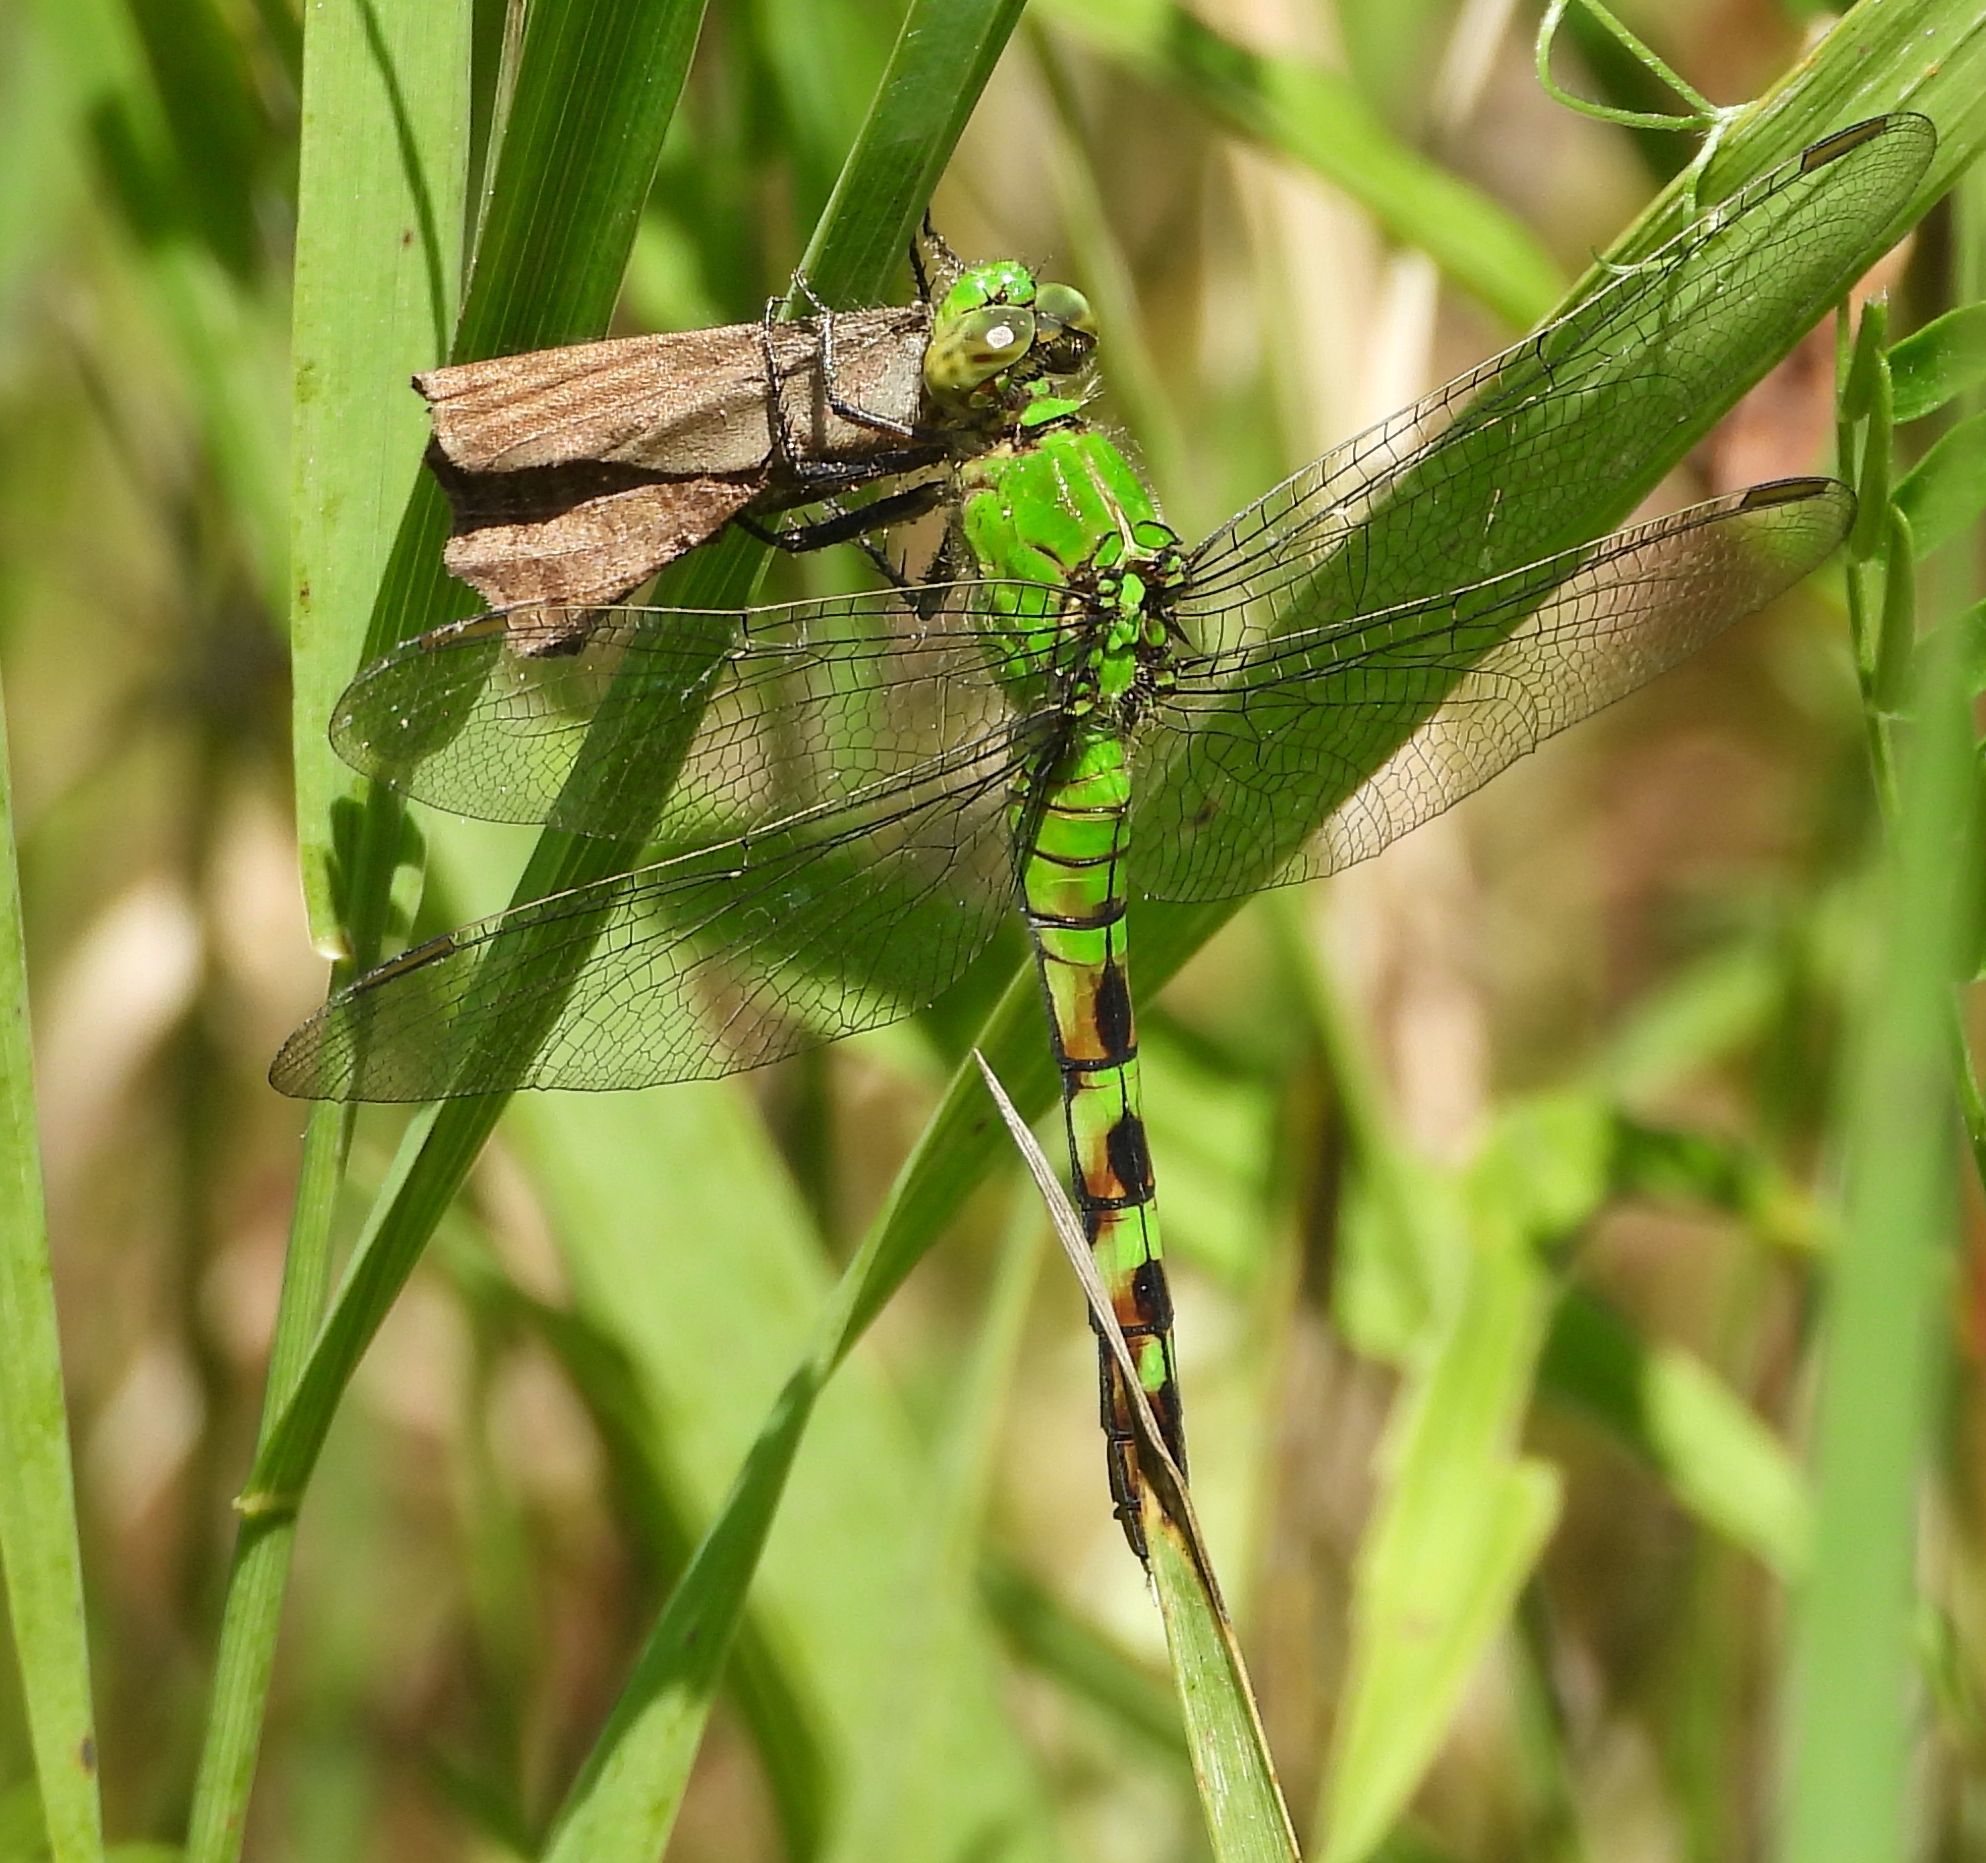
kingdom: Animalia
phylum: Arthropoda
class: Insecta
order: Odonata
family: Libellulidae
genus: Erythemis
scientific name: Erythemis simplicicollis
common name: Eastern pondhawk
